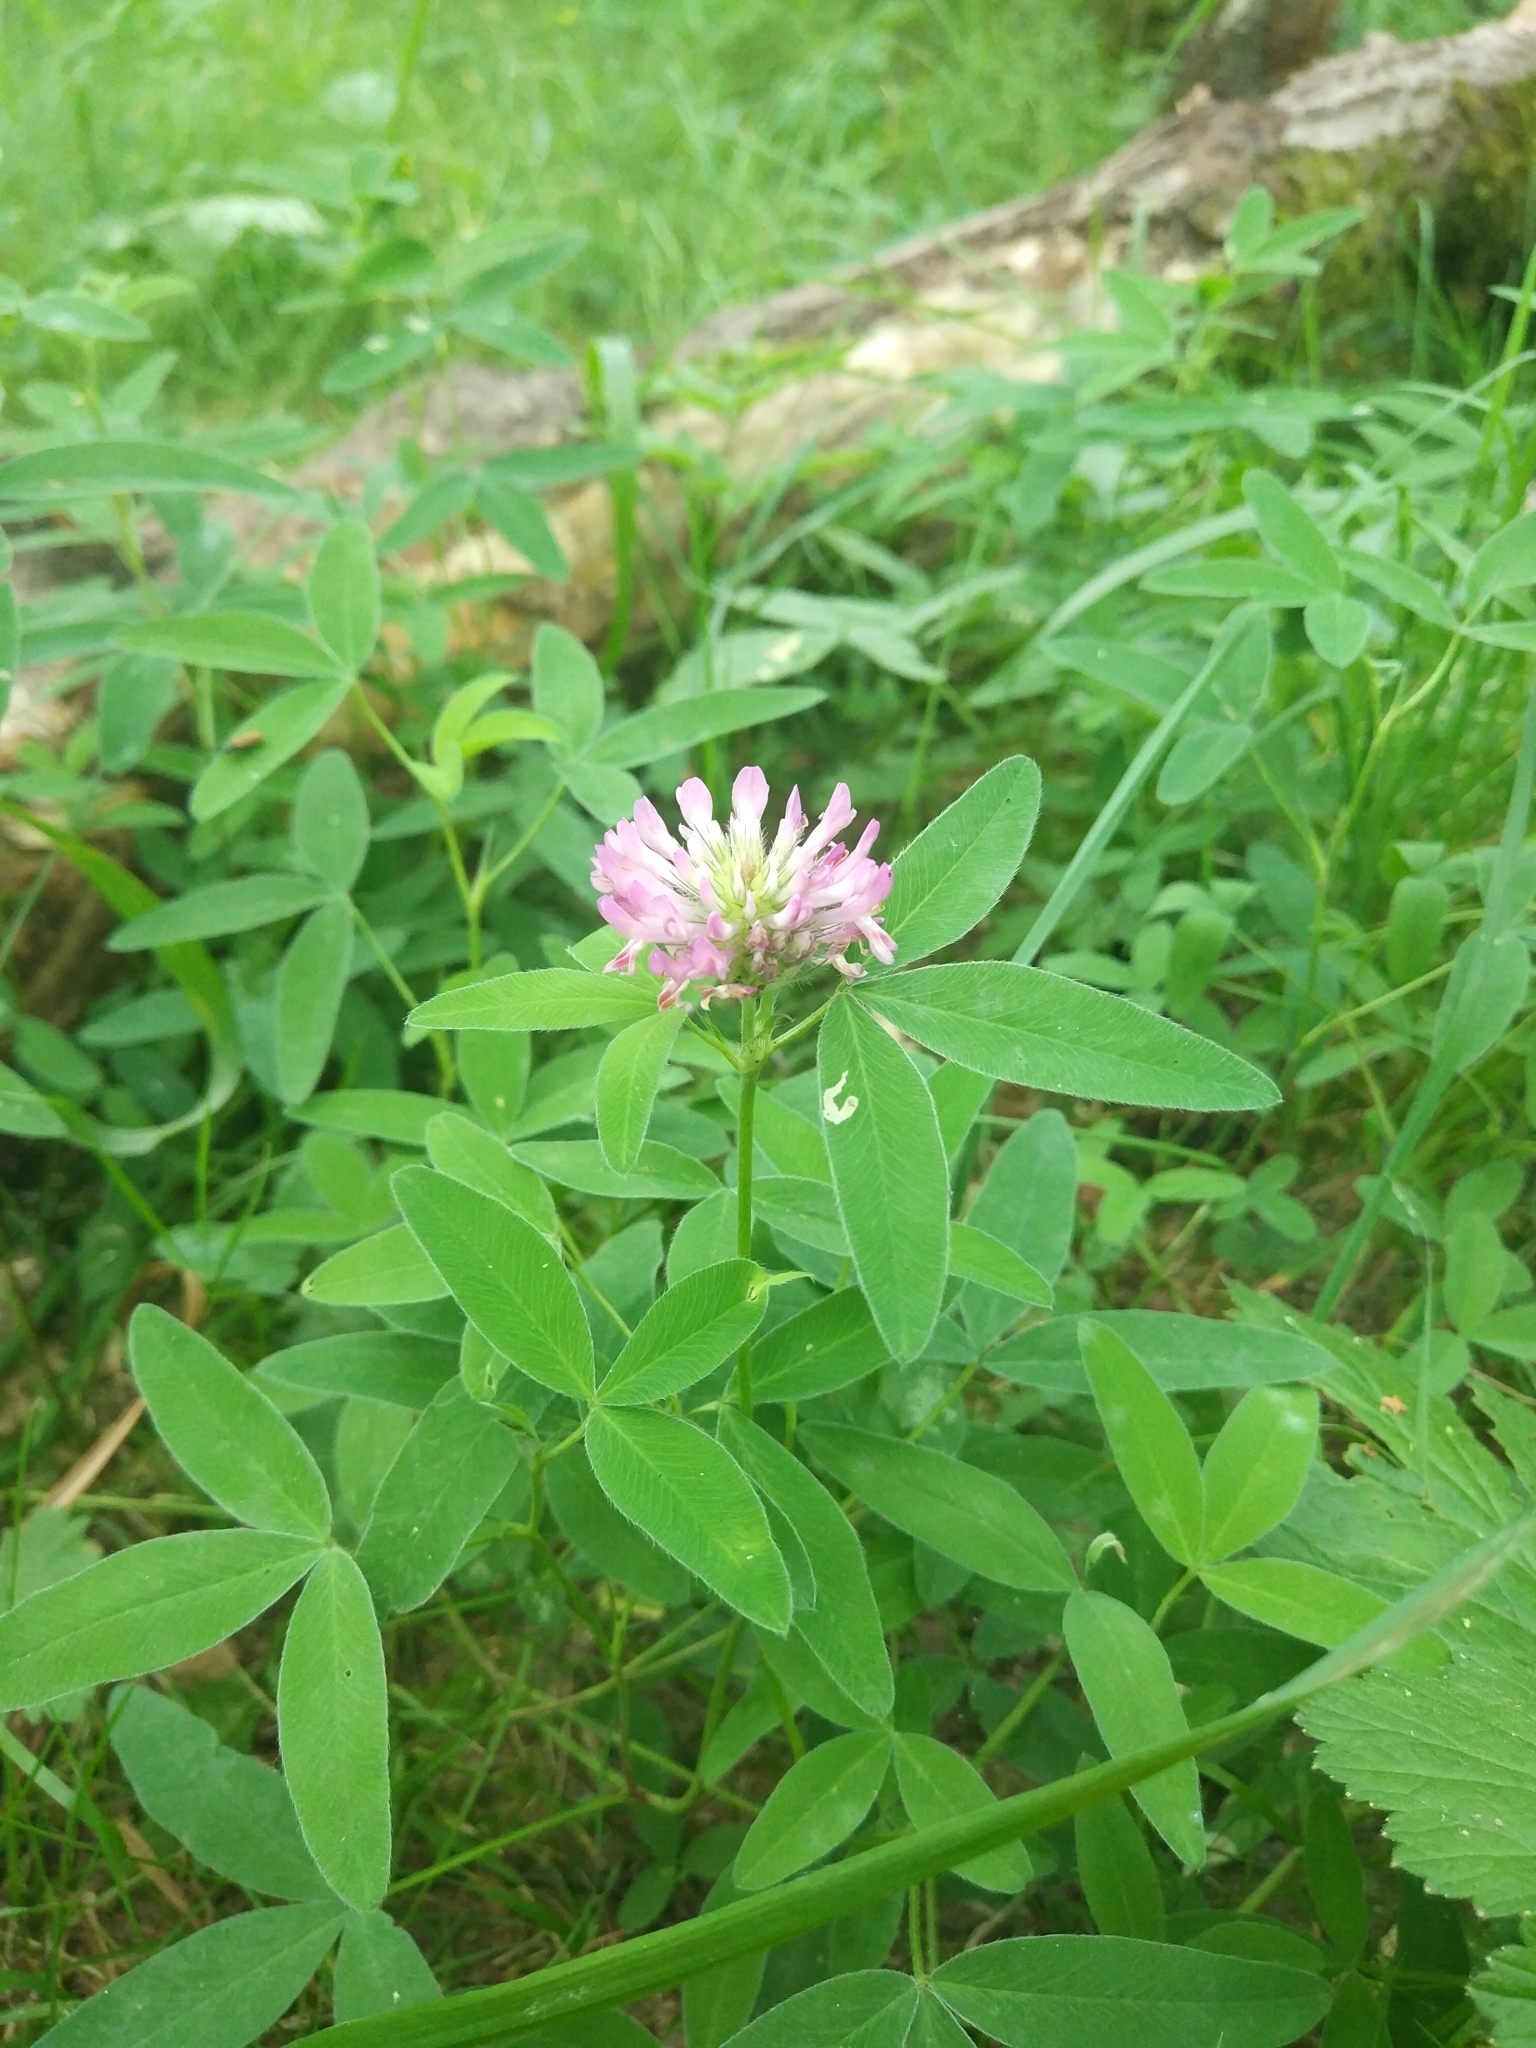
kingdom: Plantae
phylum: Tracheophyta
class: Magnoliopsida
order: Fabales
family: Fabaceae
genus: Trifolium
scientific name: Trifolium medium
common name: Zigzag clover
